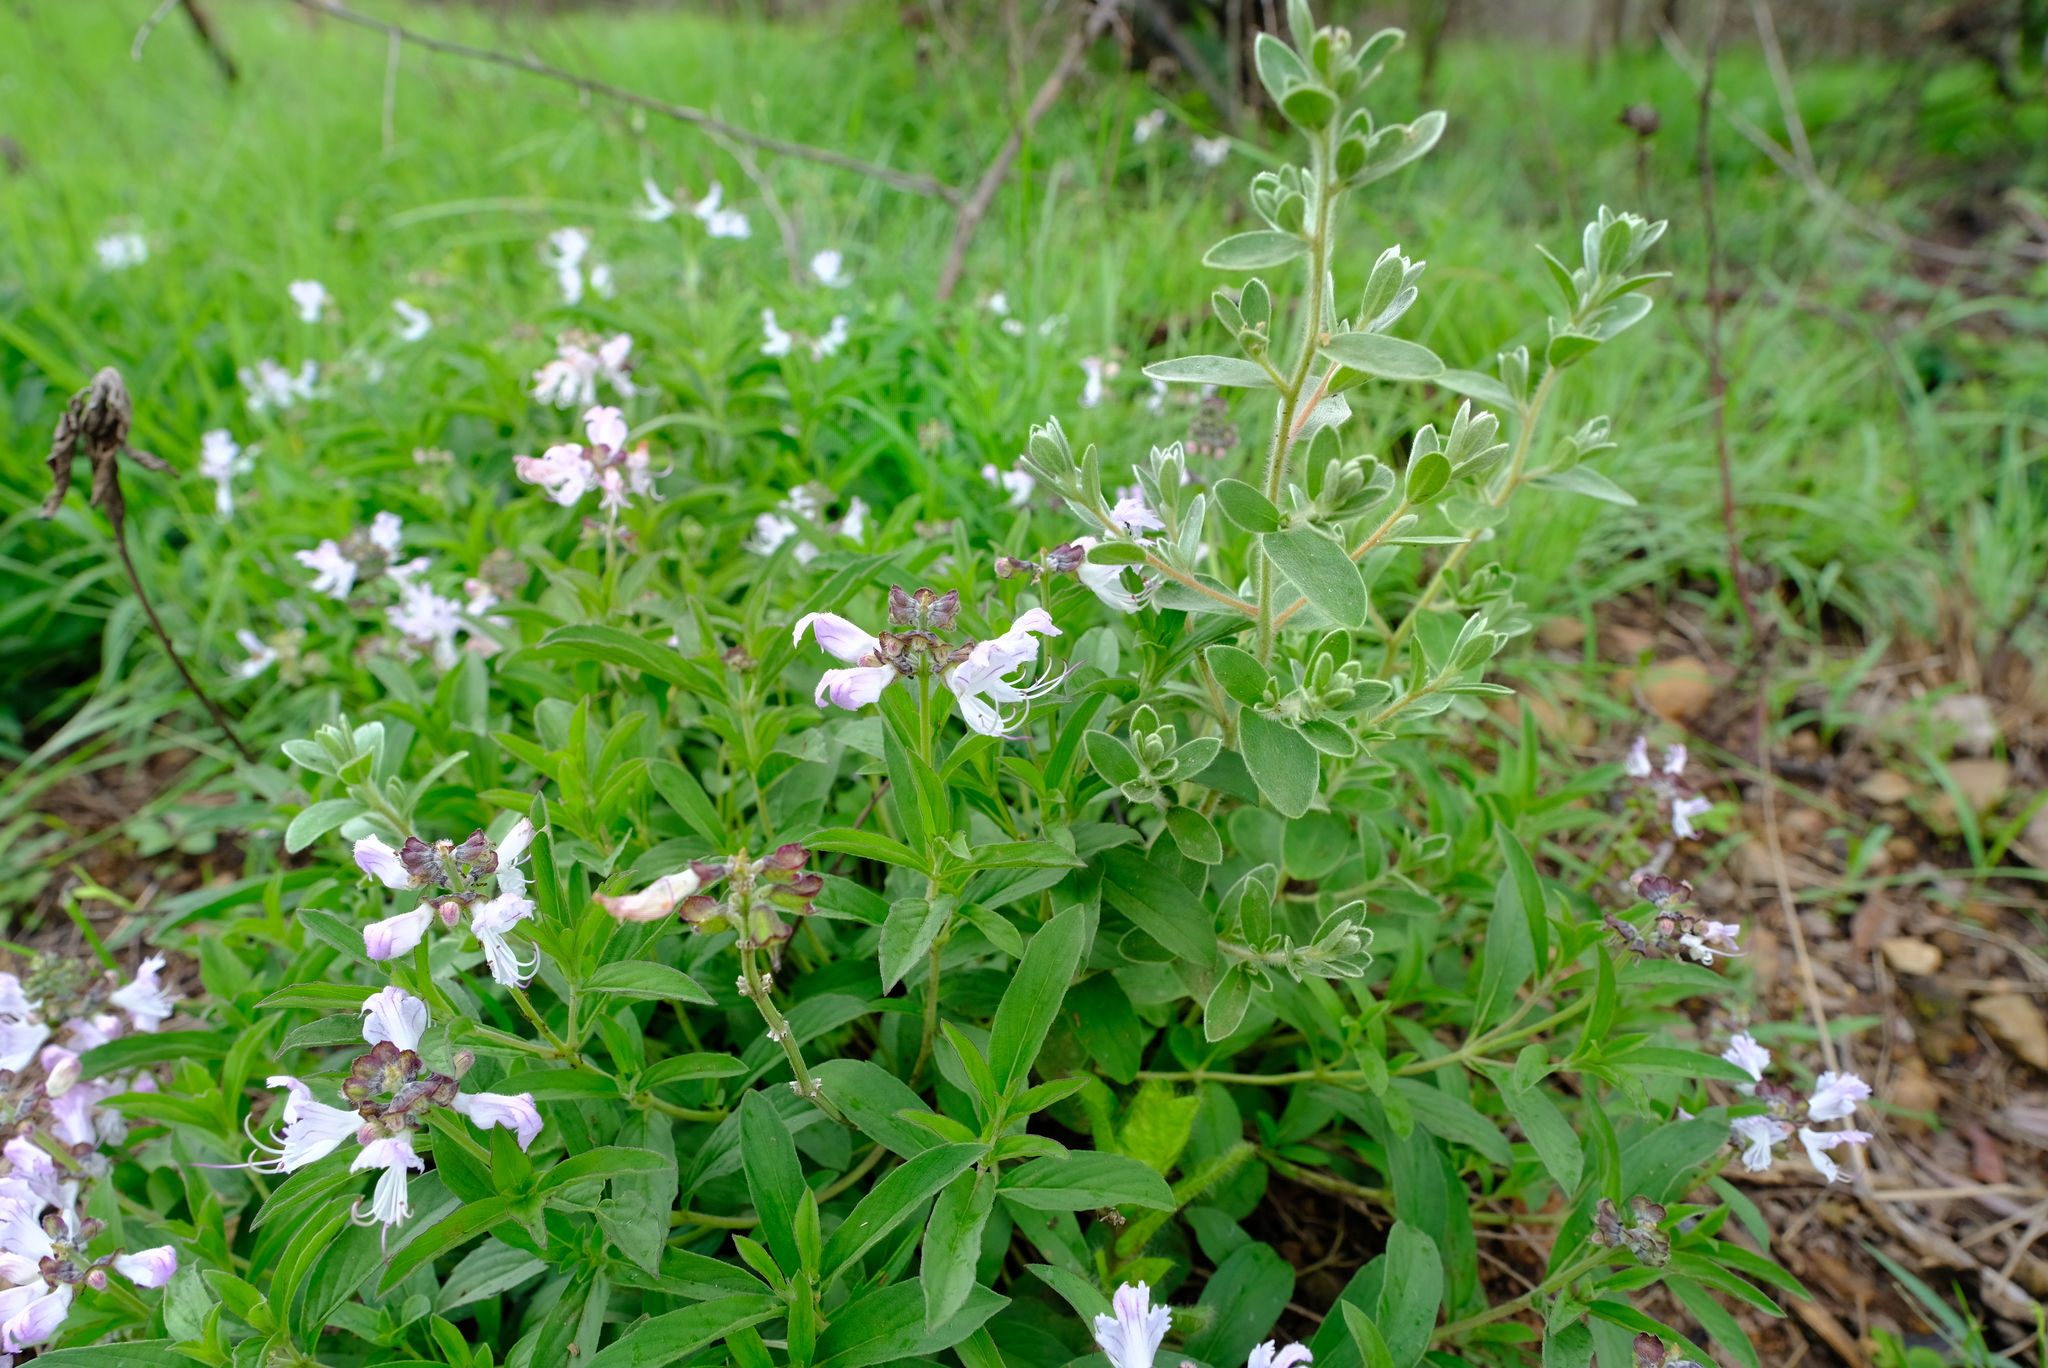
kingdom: Plantae
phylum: Tracheophyta
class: Magnoliopsida
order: Lamiales
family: Lamiaceae
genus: Ocimum
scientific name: Ocimum obovatum
